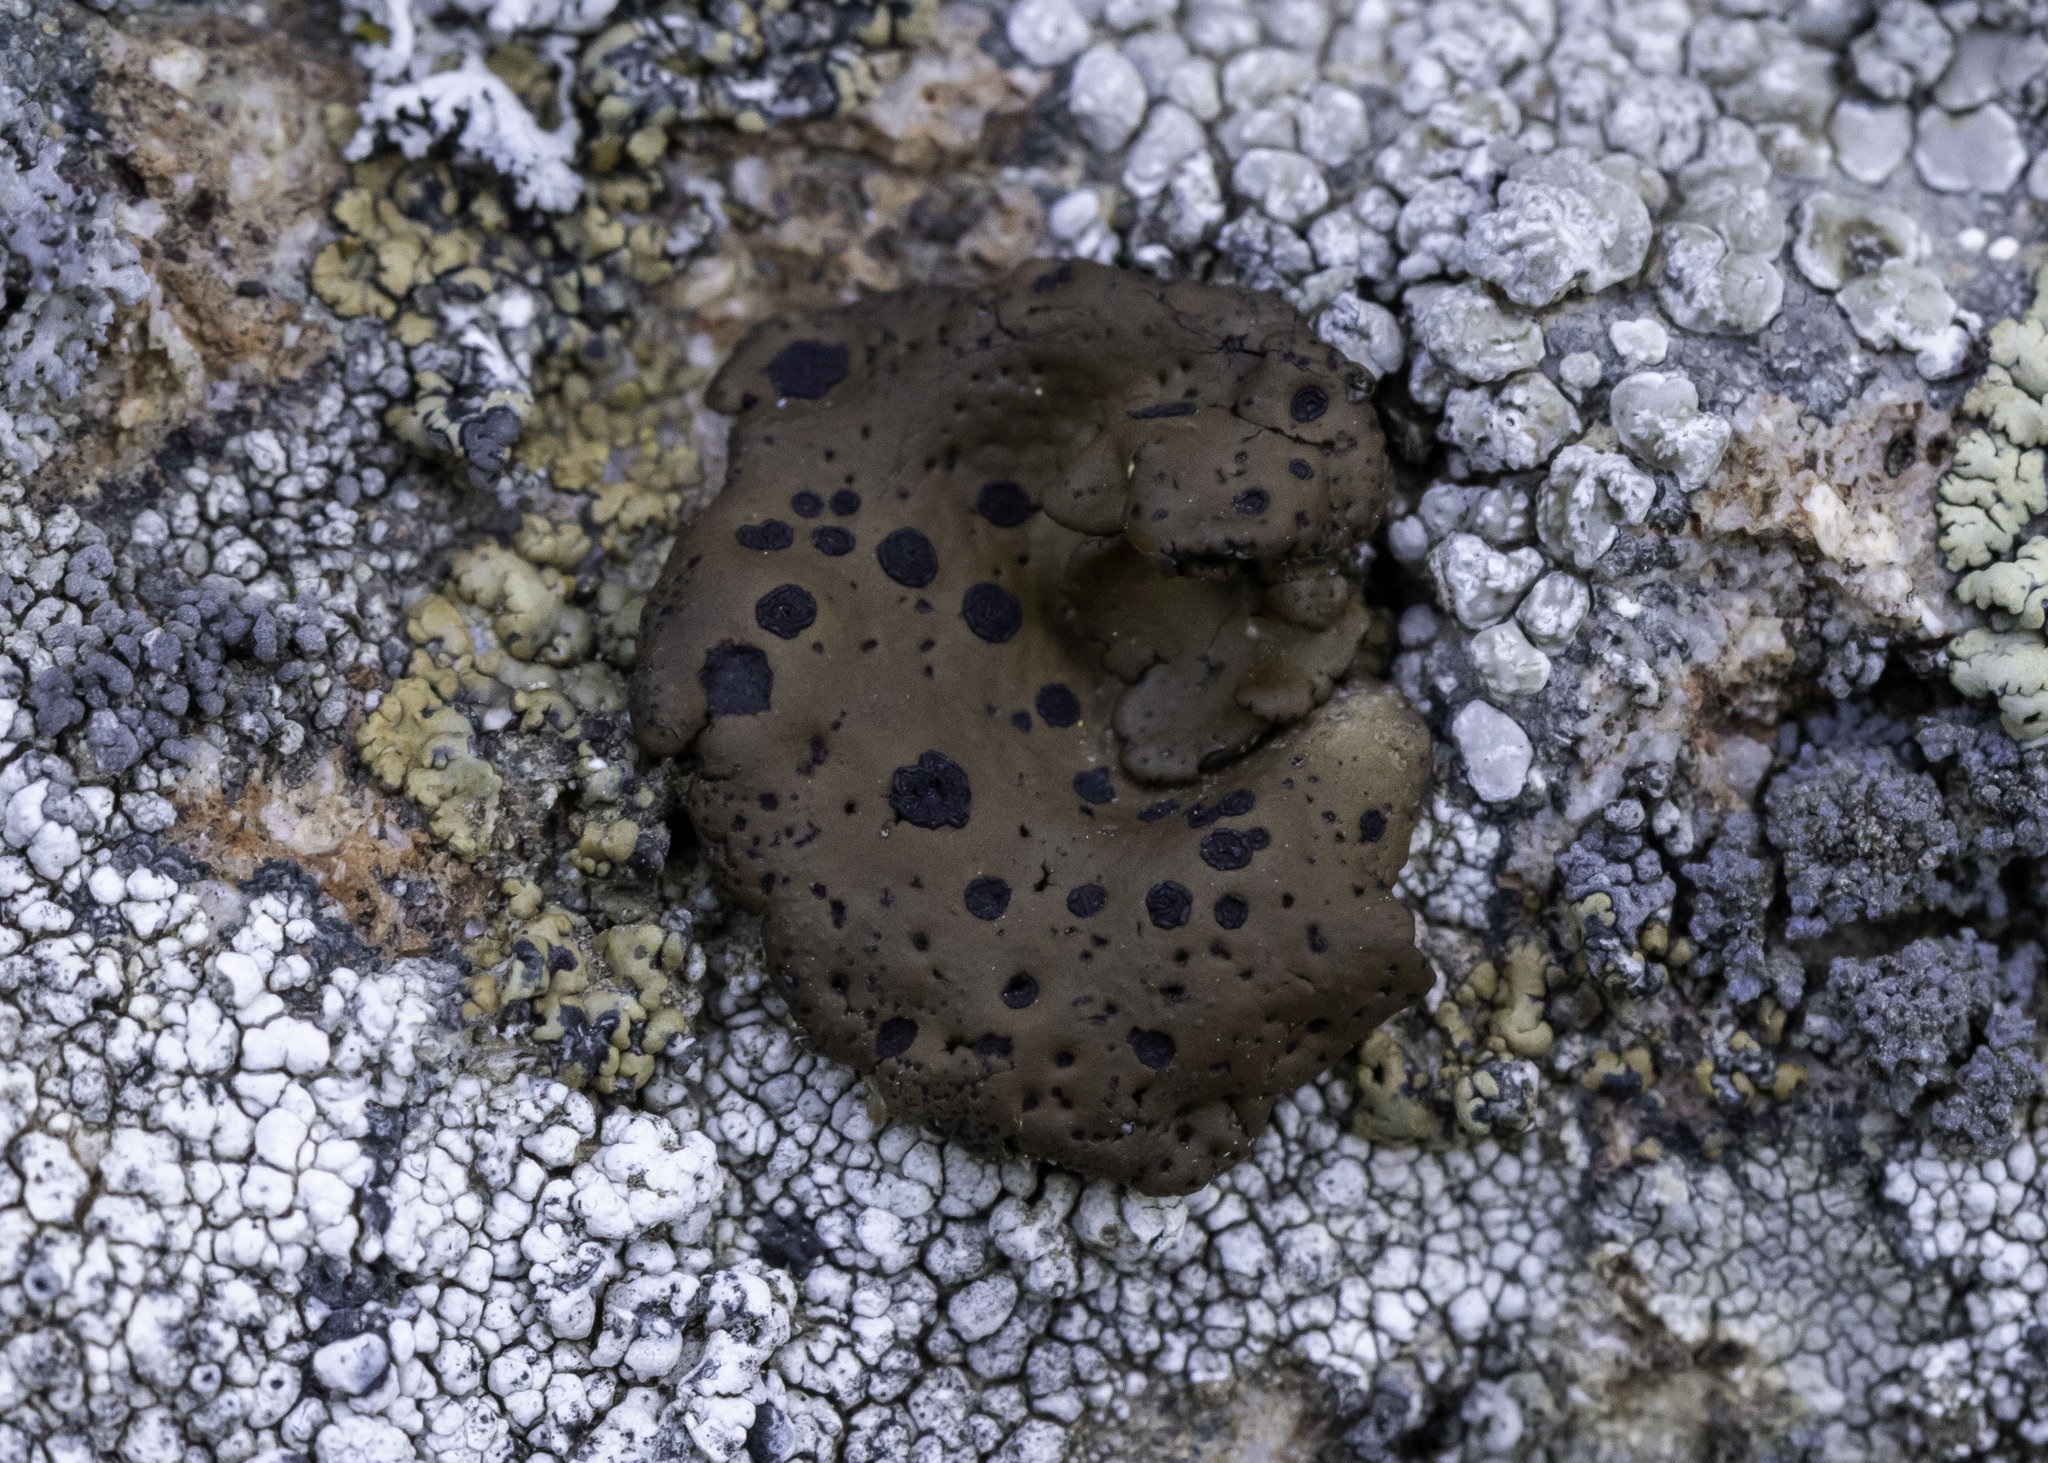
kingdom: Fungi
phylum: Ascomycota
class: Lecanoromycetes
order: Umbilicariales
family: Umbilicariaceae
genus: Umbilicaria
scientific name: Umbilicaria phaea
